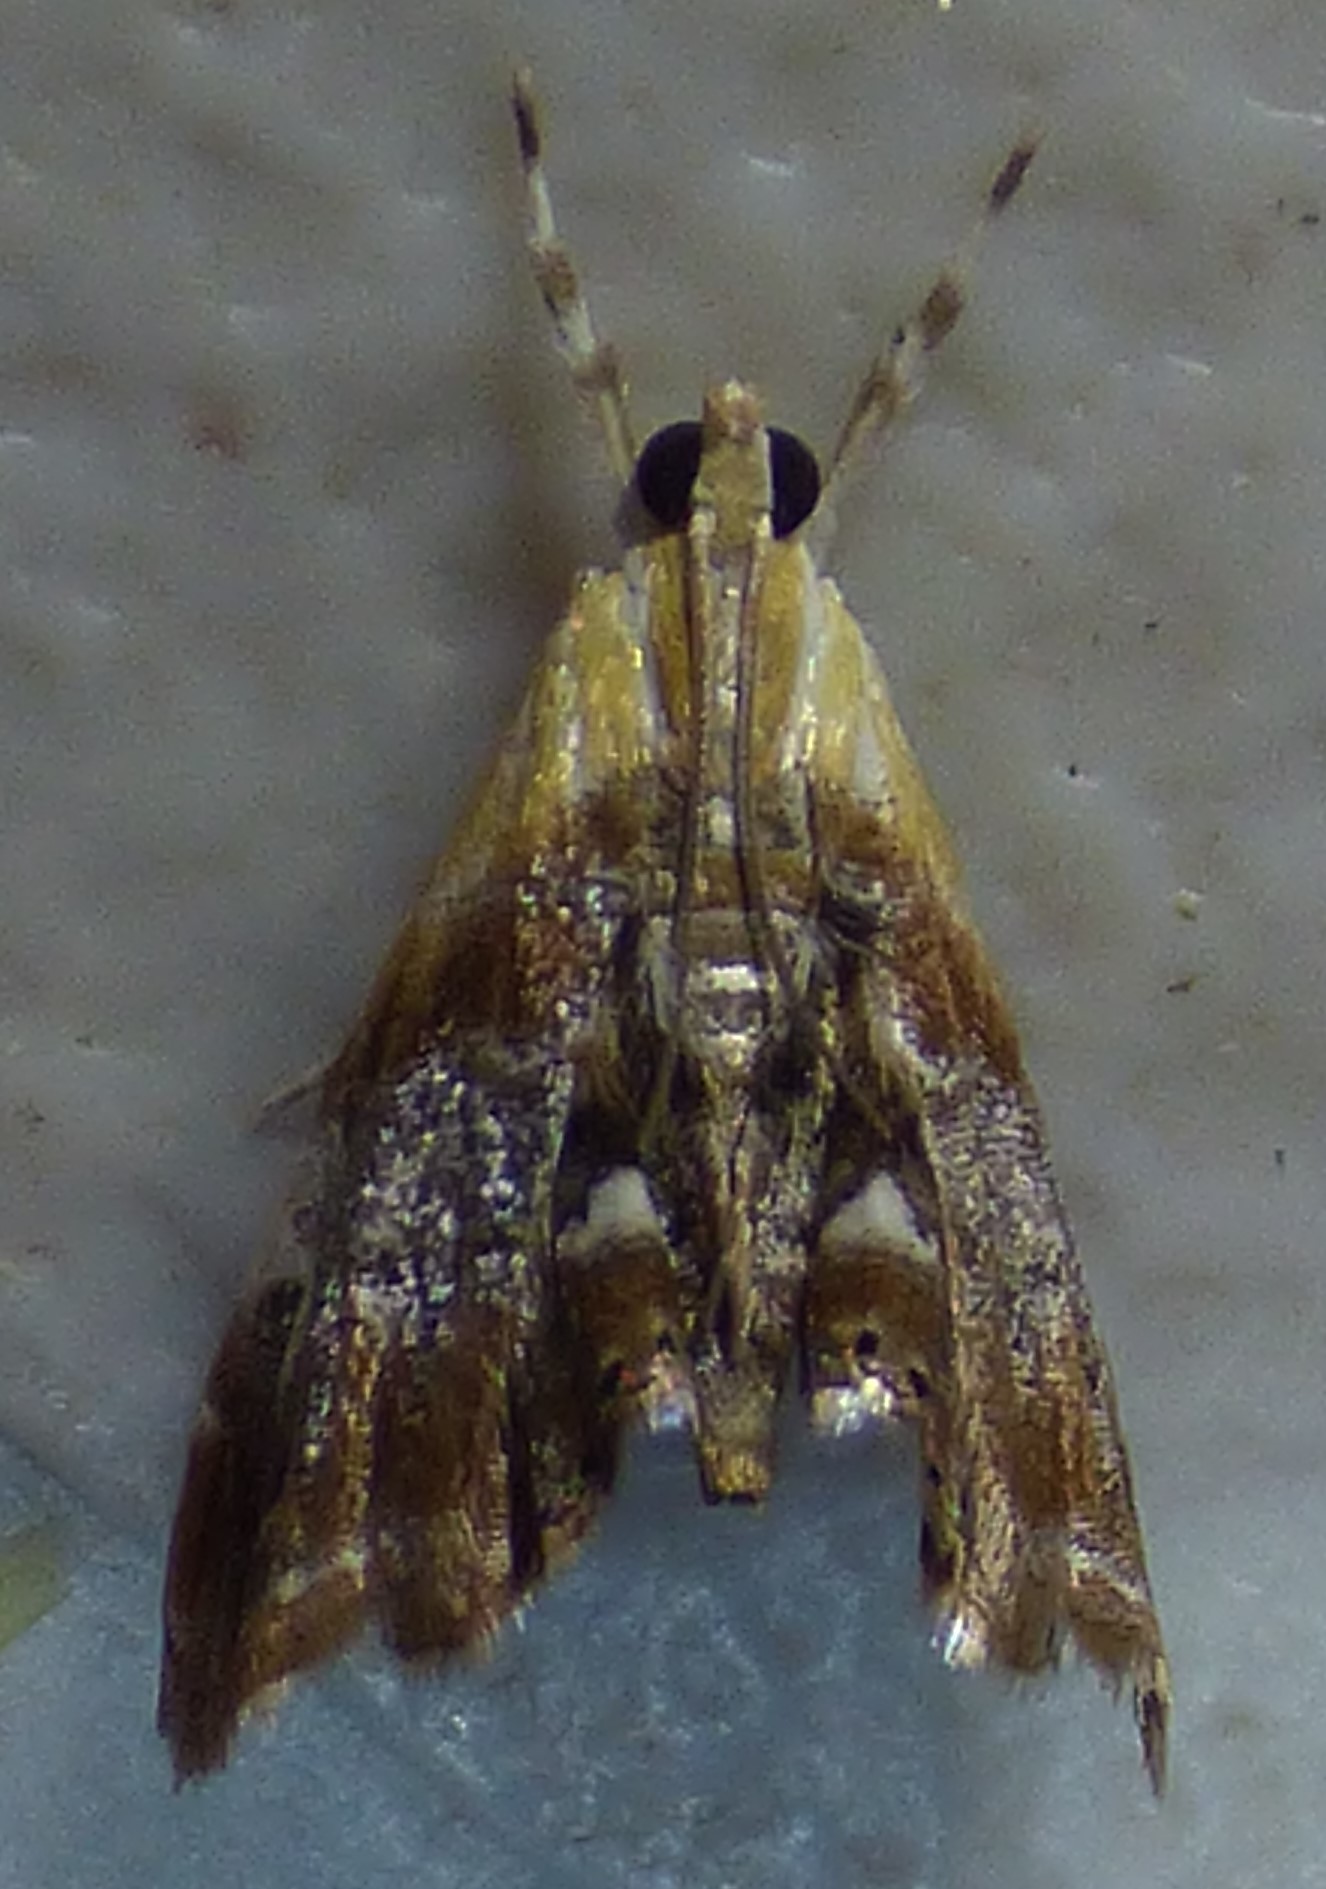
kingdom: Animalia
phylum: Arthropoda
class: Insecta
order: Lepidoptera
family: Crambidae
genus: Dicymolomia
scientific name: Dicymolomia julianalis
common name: Julia's dicymolomia moth
